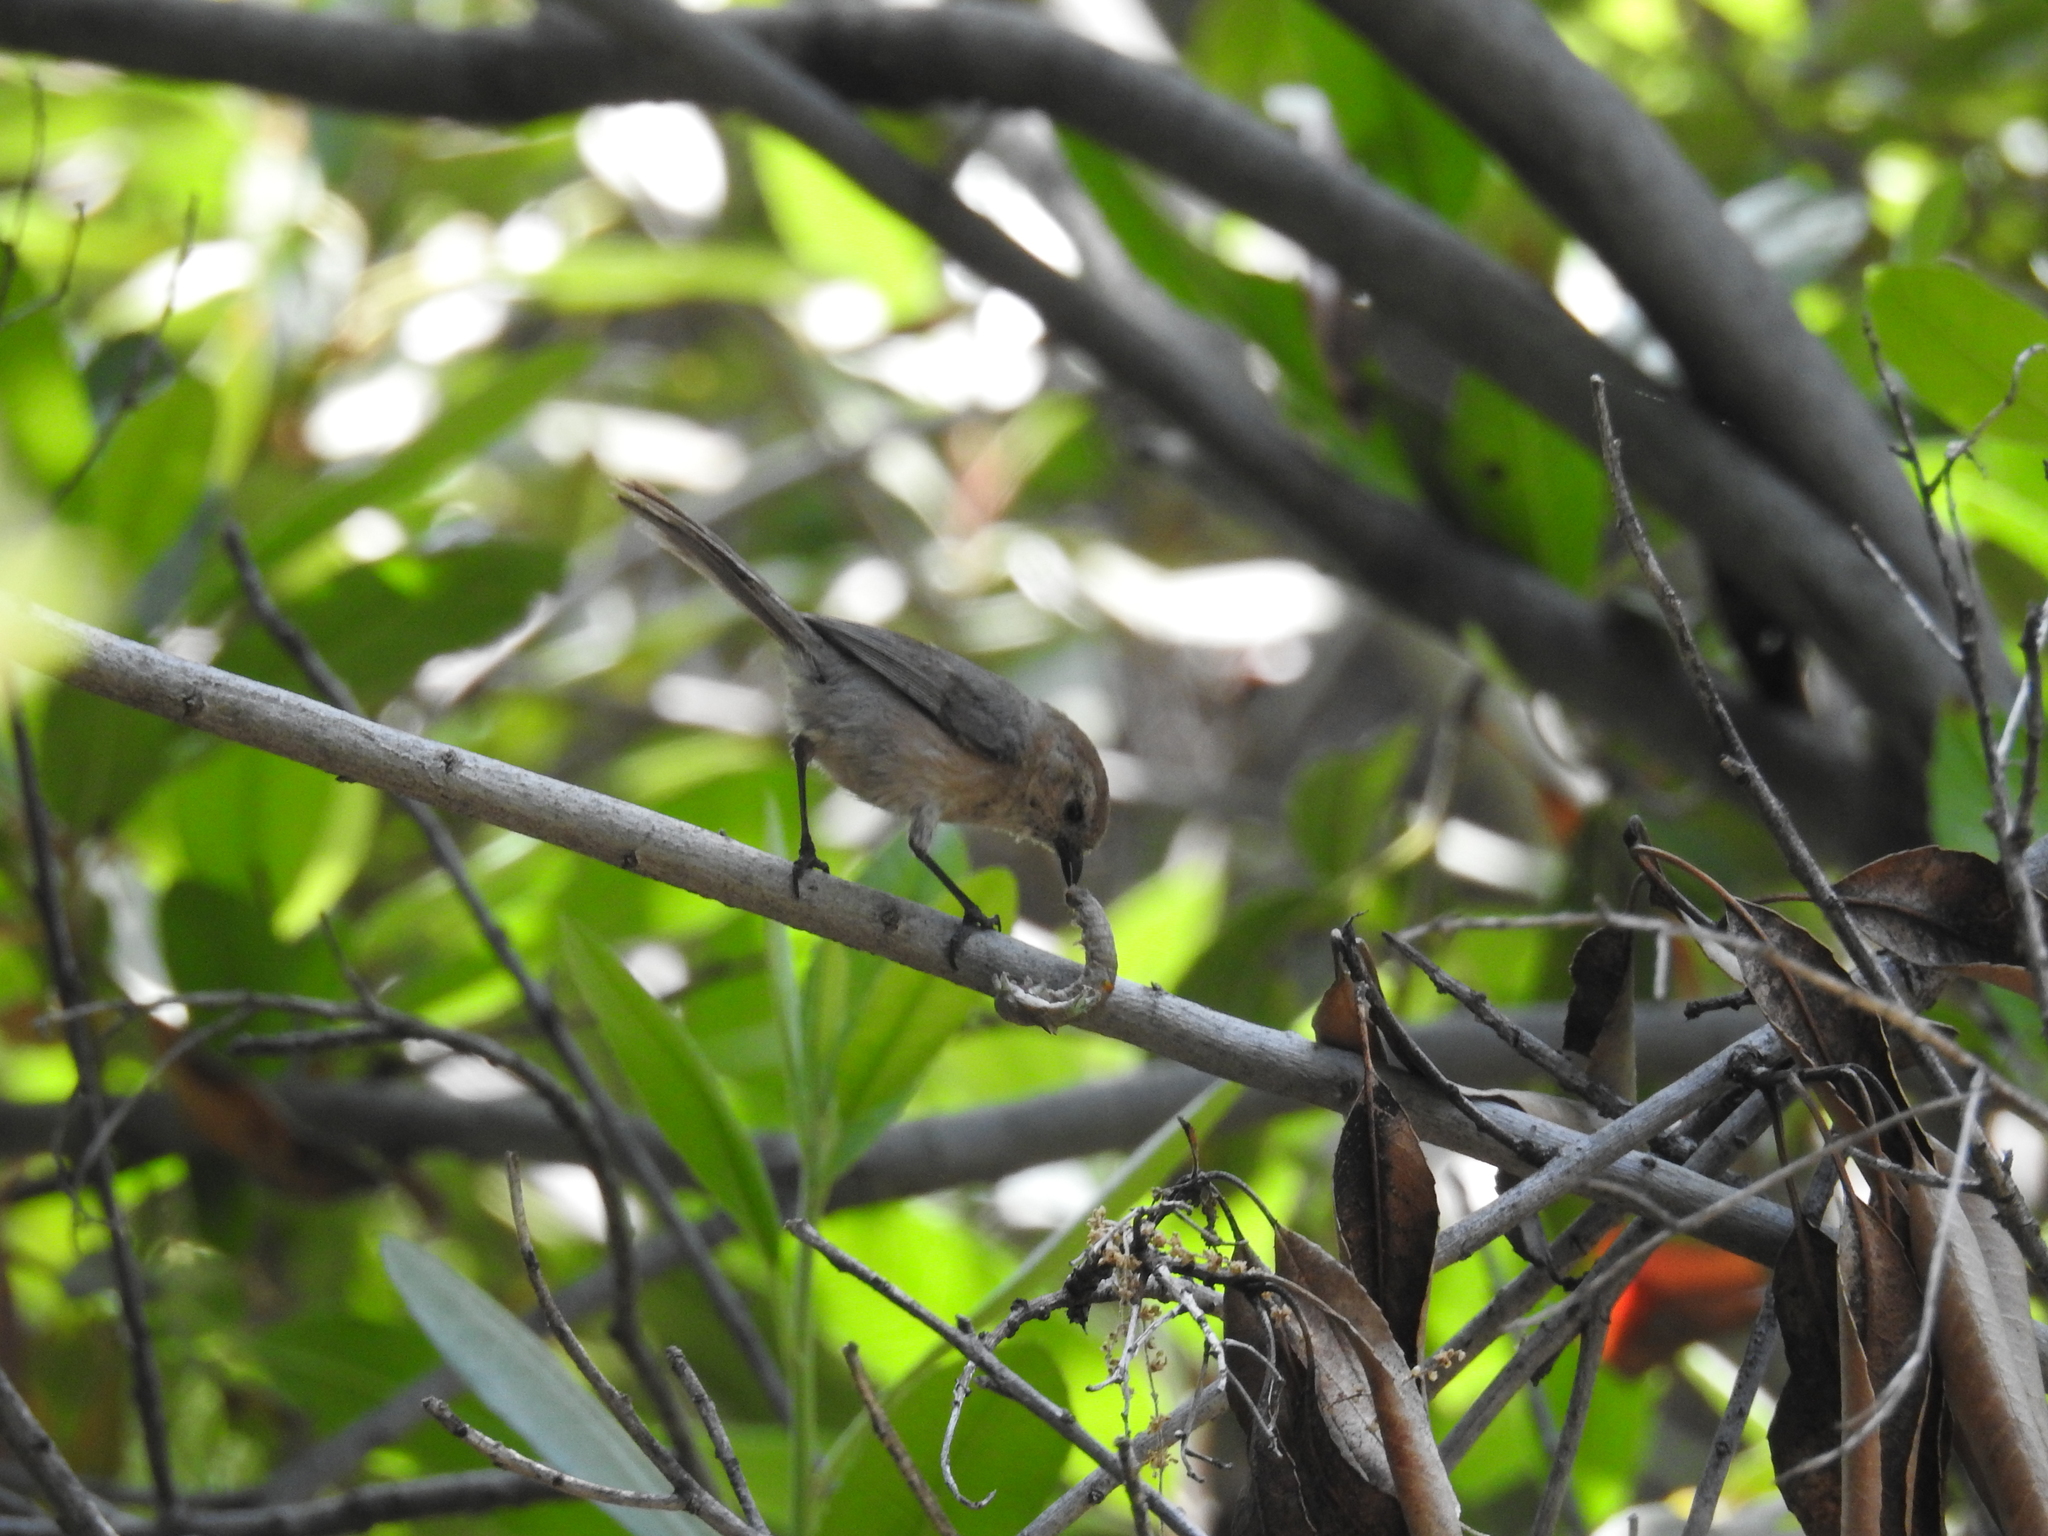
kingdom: Animalia
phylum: Chordata
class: Aves
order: Passeriformes
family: Aegithalidae
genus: Psaltriparus
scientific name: Psaltriparus minimus
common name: American bushtit
